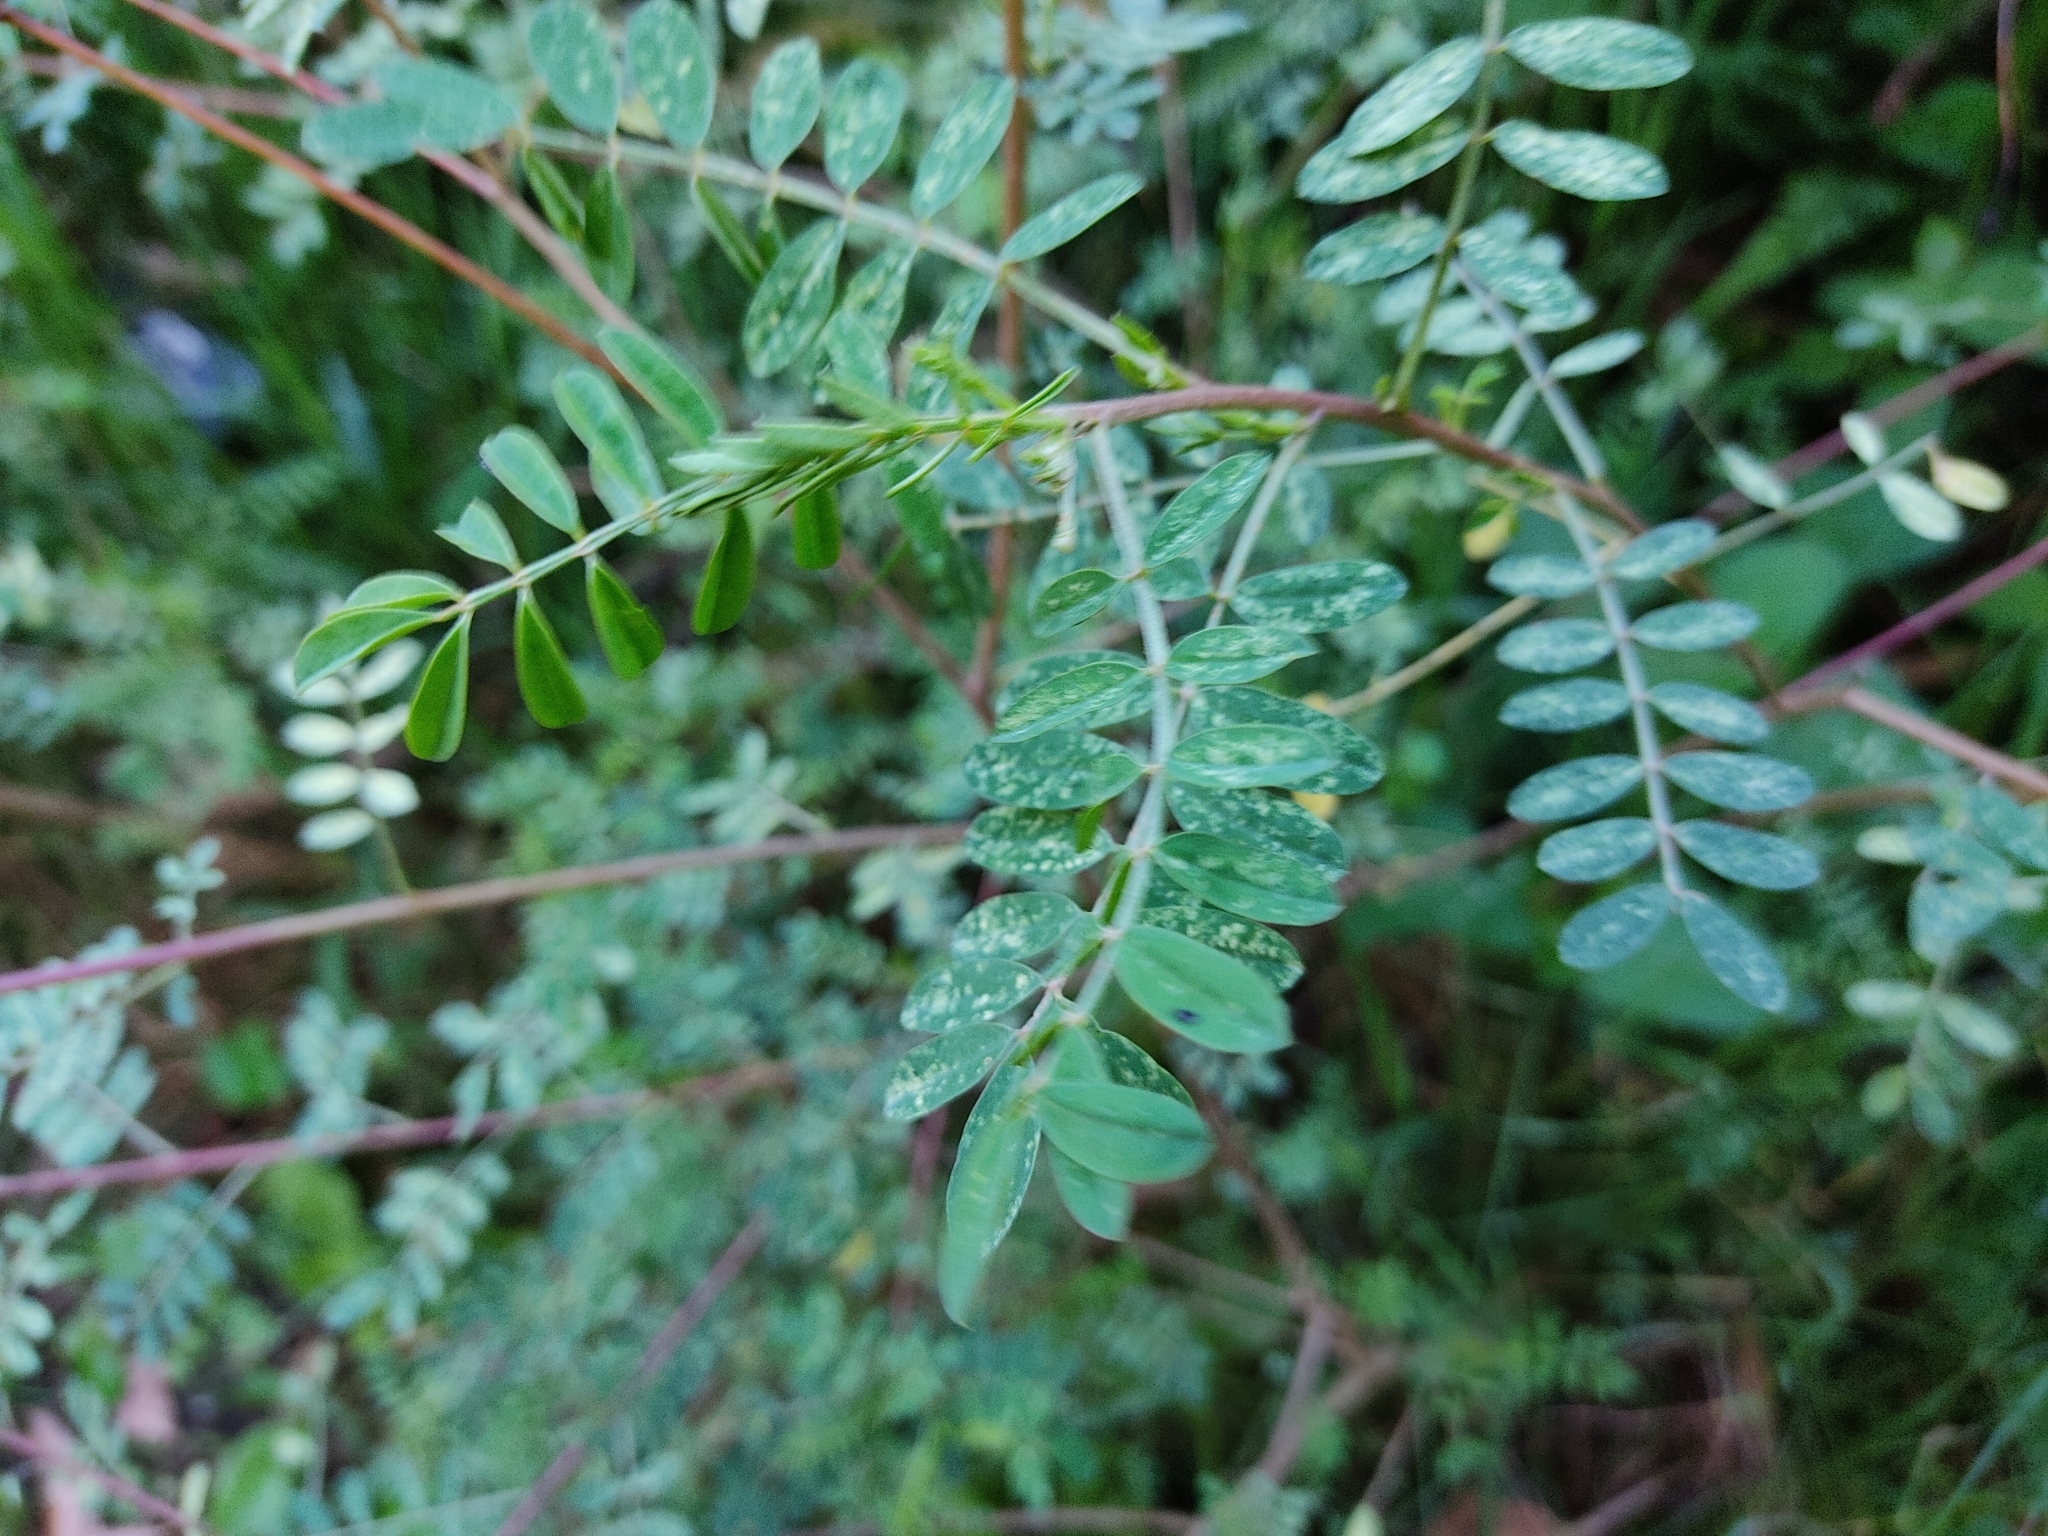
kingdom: Plantae
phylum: Tracheophyta
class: Magnoliopsida
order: Fabales
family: Fabaceae
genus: Dalea
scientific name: Dalea coerulea
